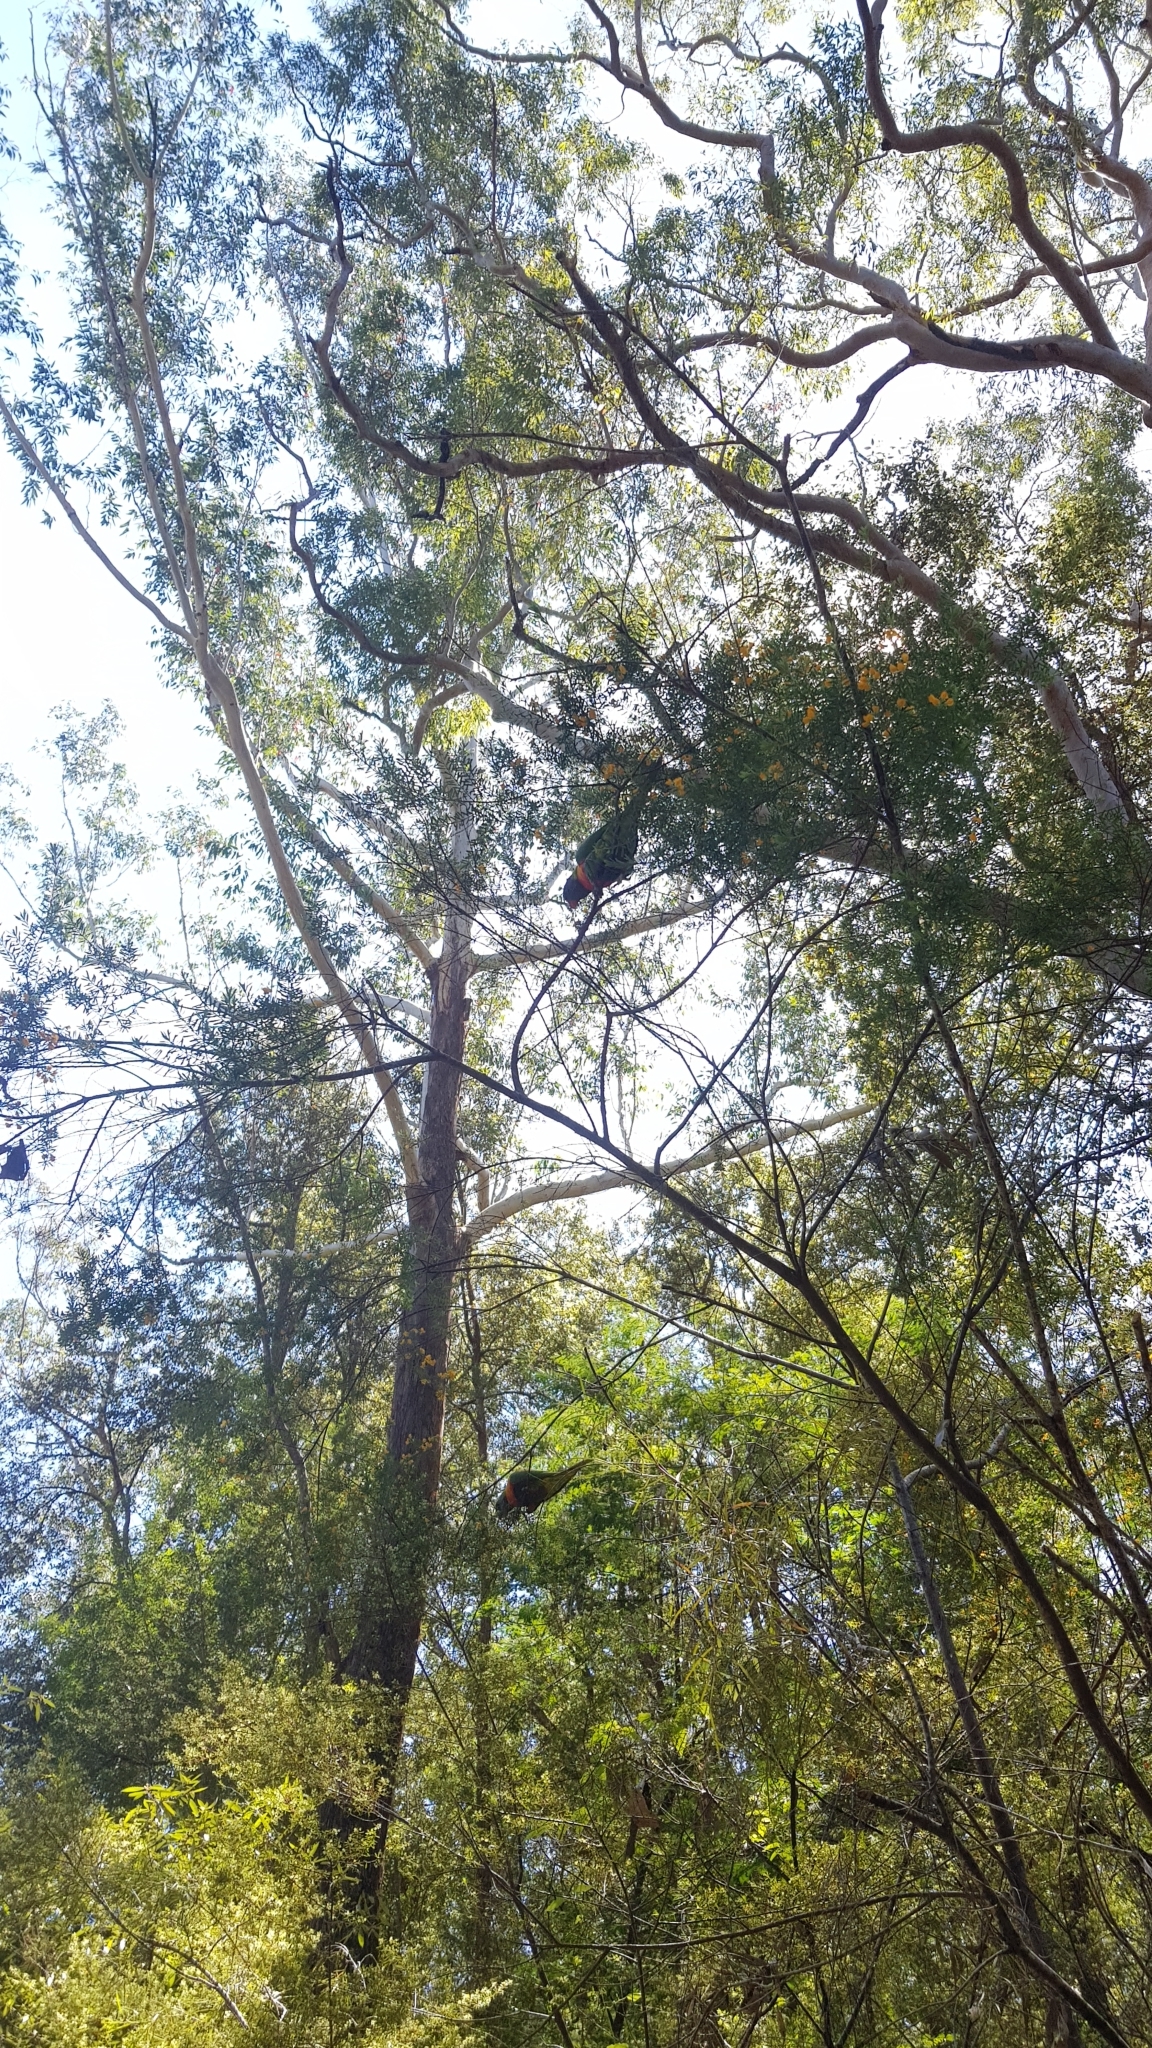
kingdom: Animalia
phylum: Chordata
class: Aves
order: Psittaciformes
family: Psittacidae
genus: Trichoglossus
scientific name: Trichoglossus haematodus
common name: Coconut lorikeet
